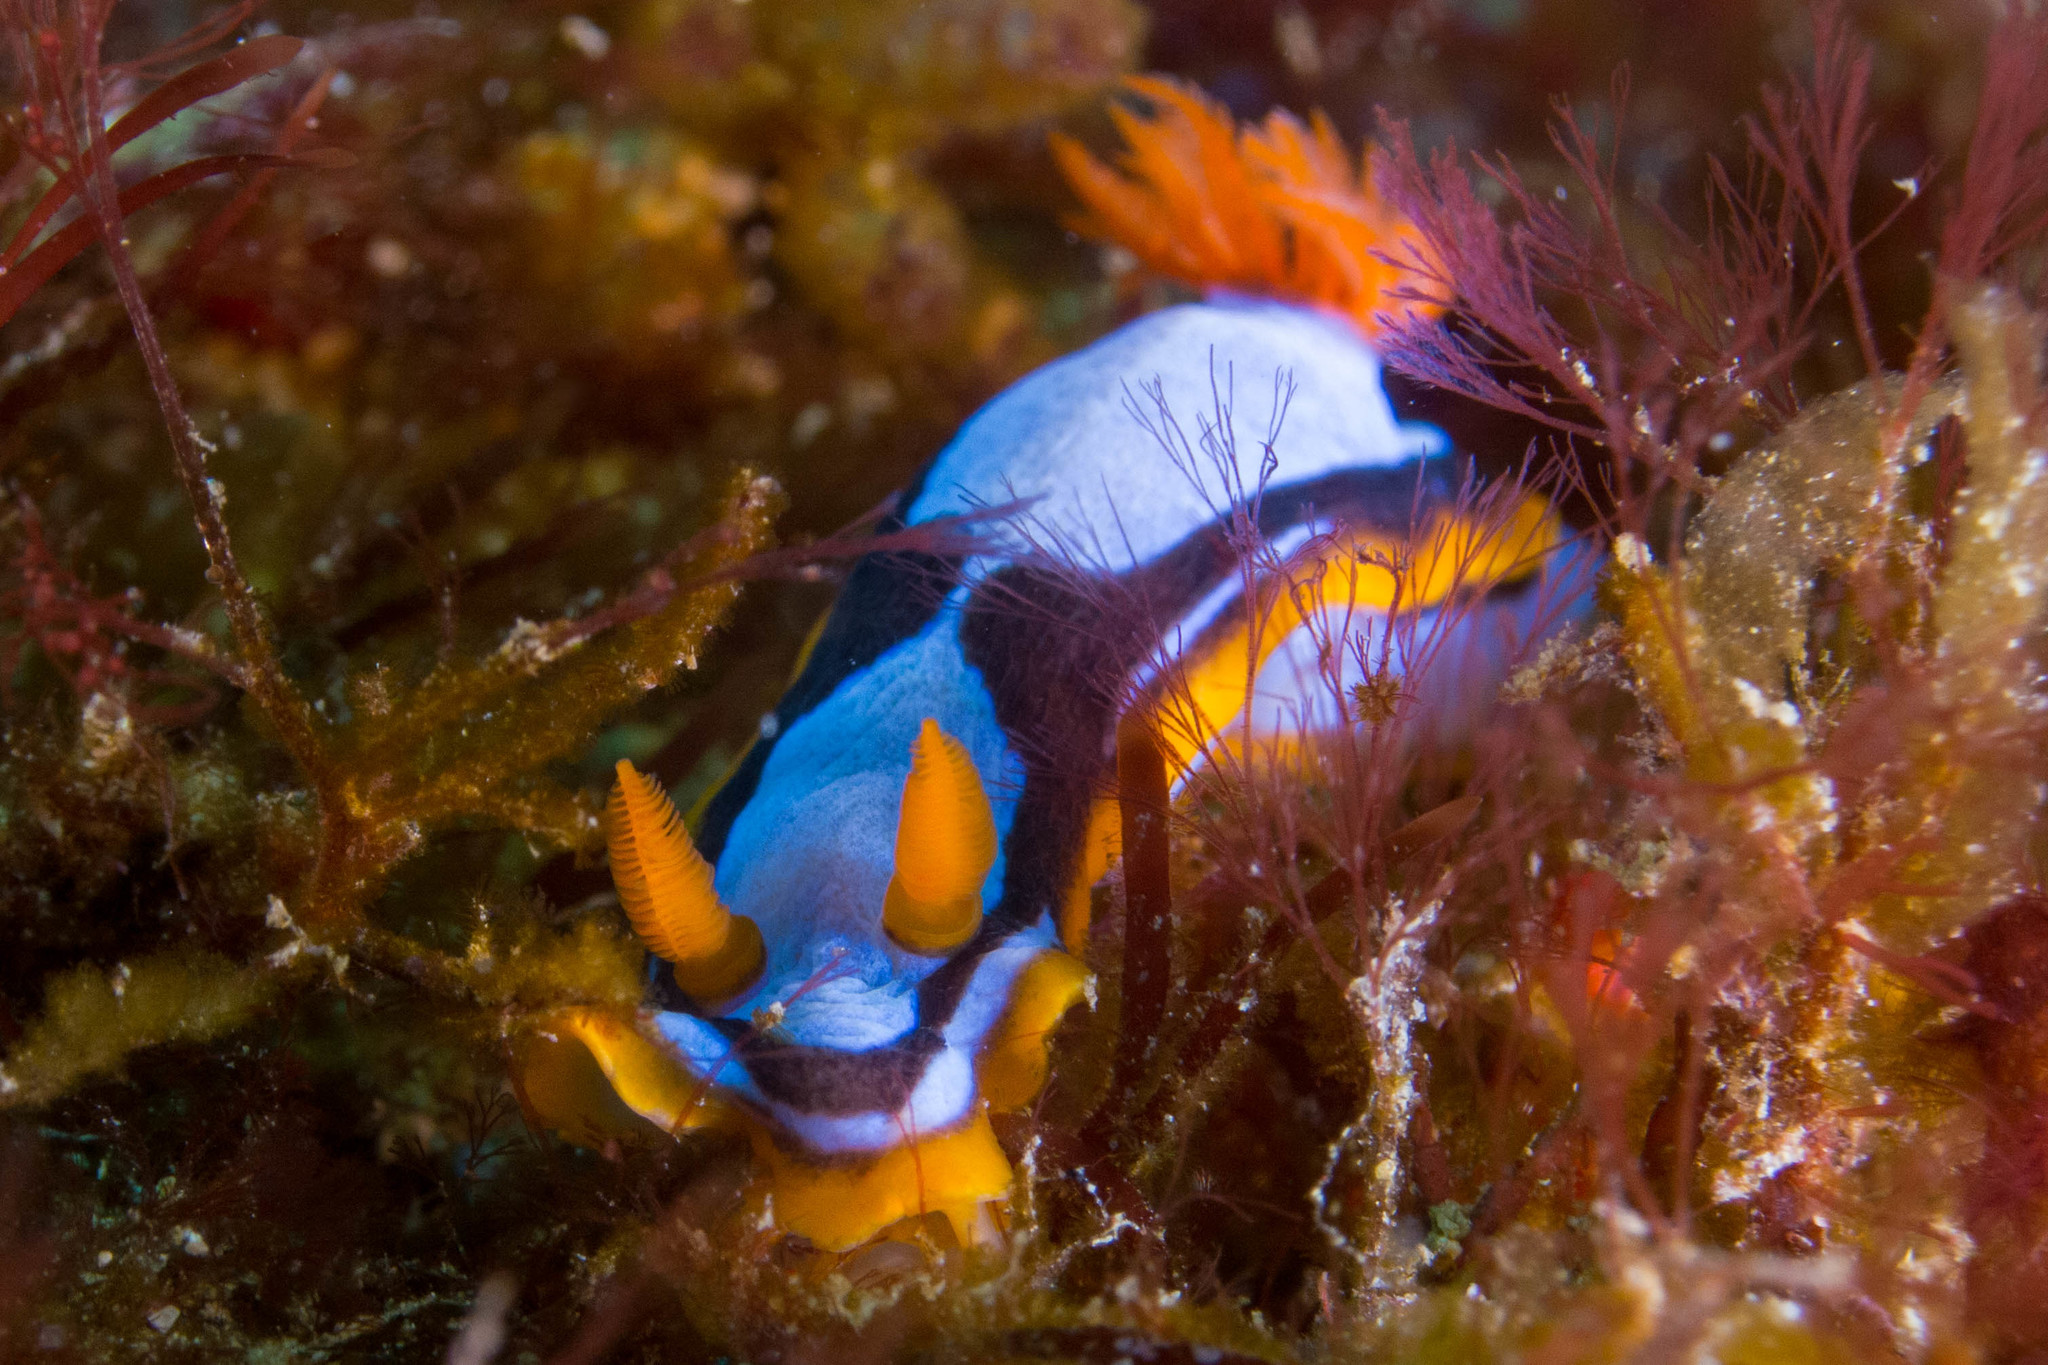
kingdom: Animalia
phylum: Mollusca
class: Gastropoda
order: Nudibranchia
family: Chromodorididae
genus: Chromodoris
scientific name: Chromodoris westraliensis
